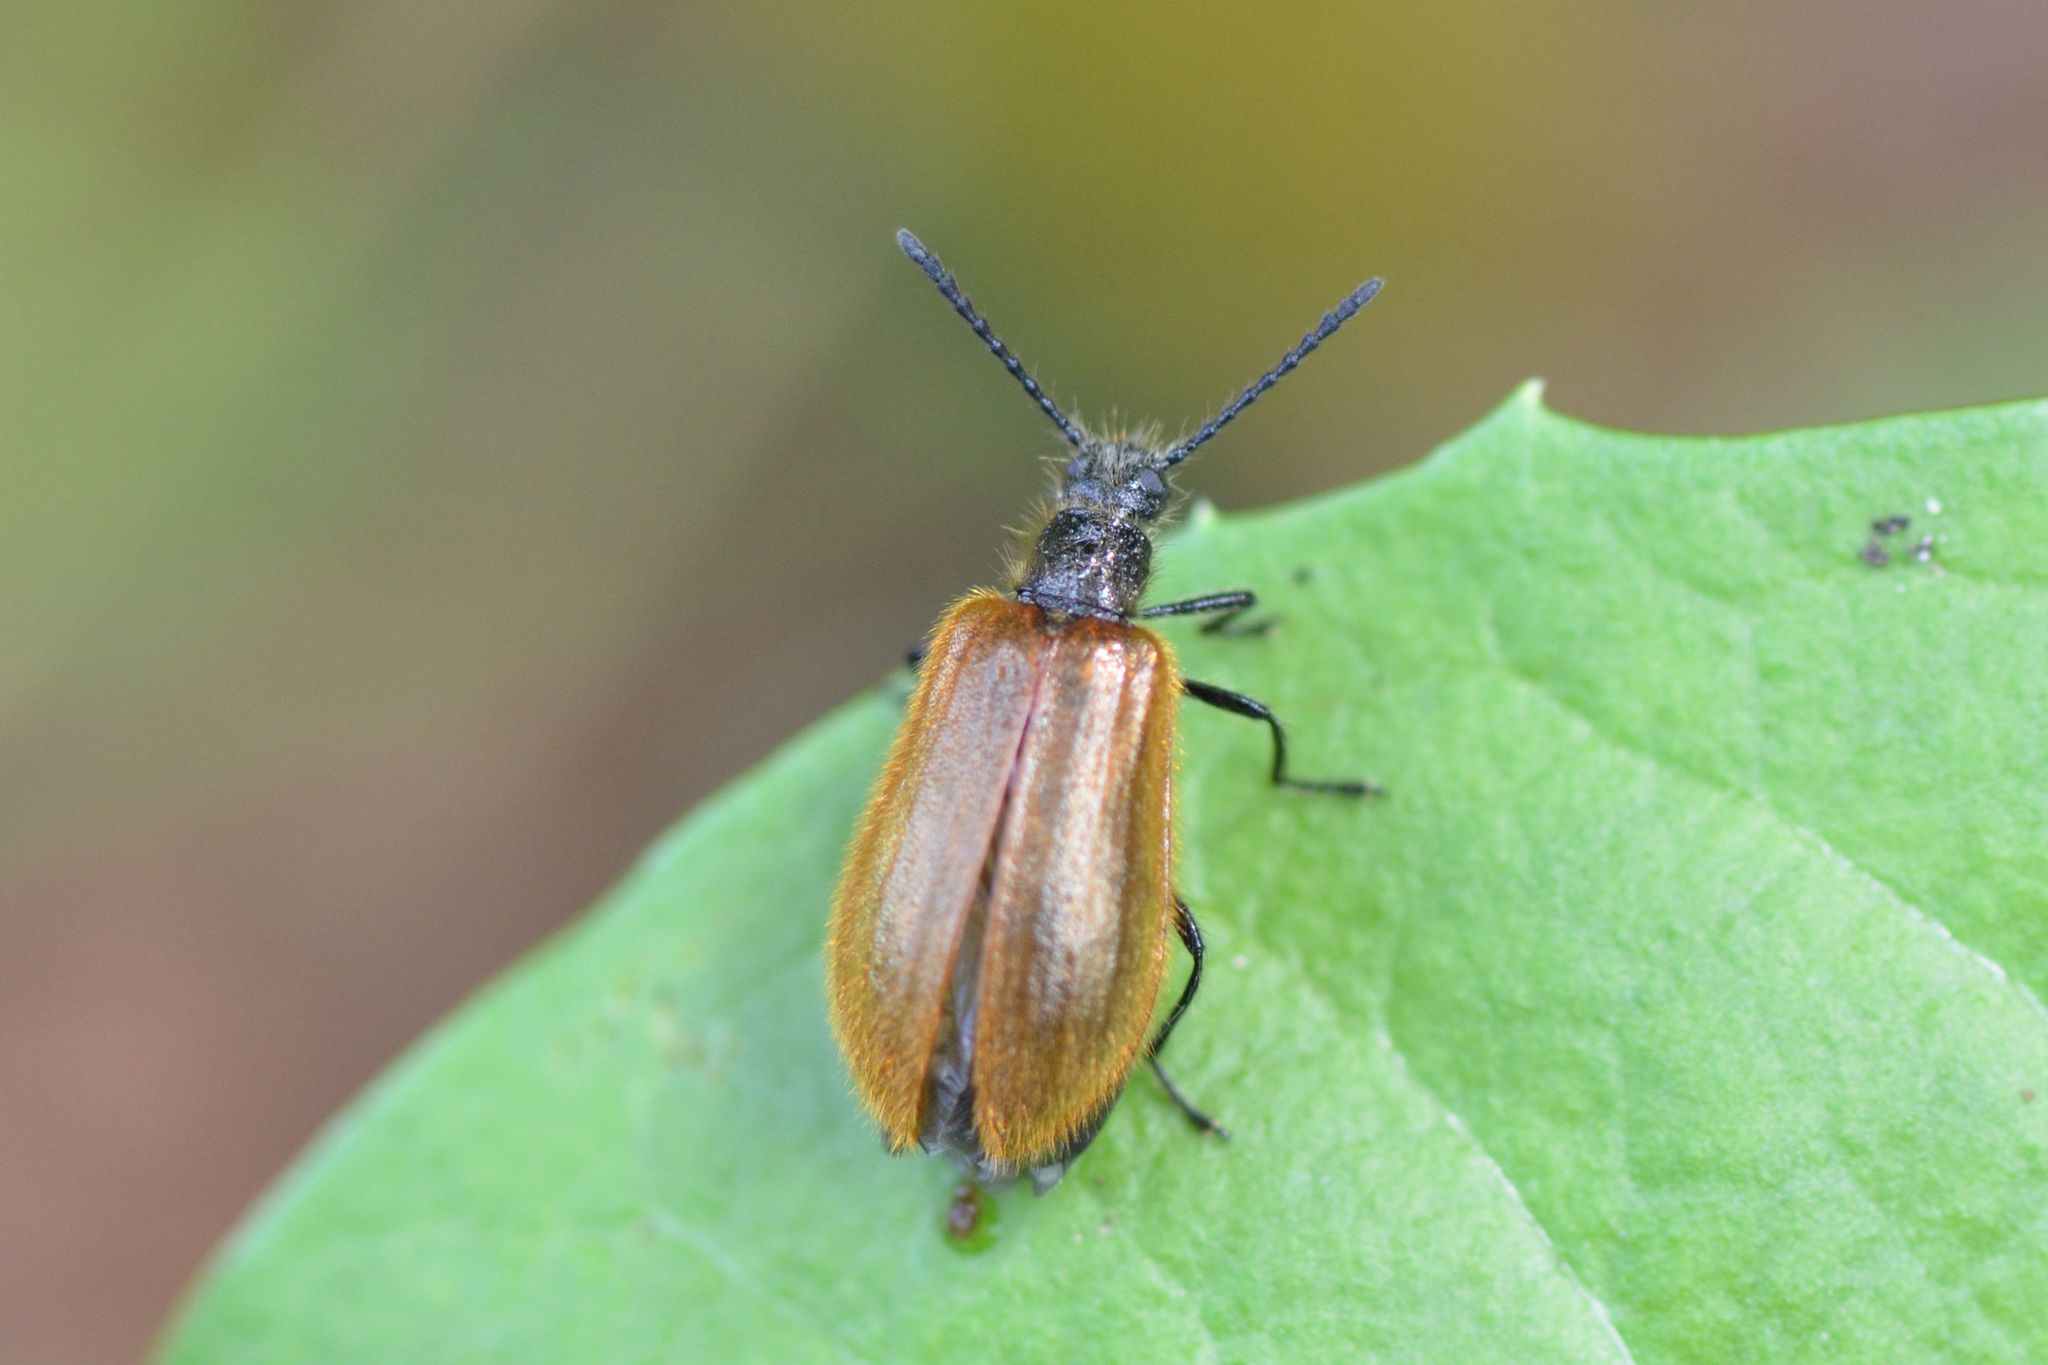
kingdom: Animalia
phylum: Arthropoda
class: Insecta
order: Coleoptera
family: Tenebrionidae
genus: Lagria
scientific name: Lagria hirta
